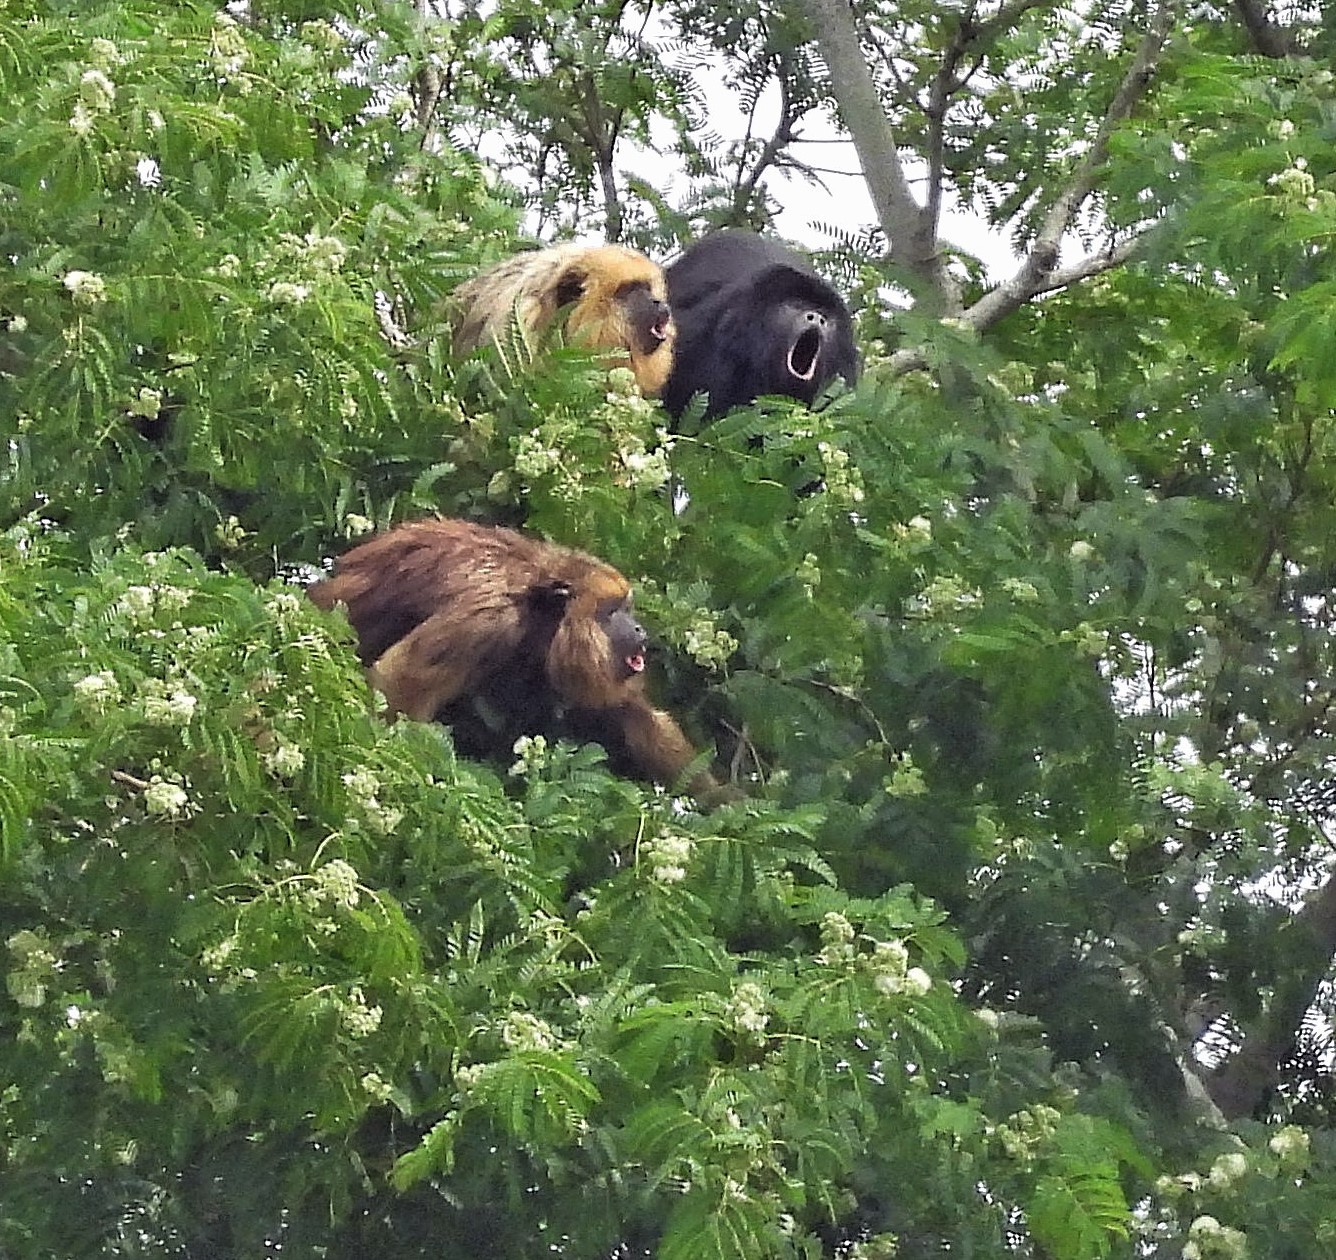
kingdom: Animalia
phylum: Chordata
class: Mammalia
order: Primates
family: Atelidae
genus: Alouatta
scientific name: Alouatta caraya
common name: Black howler
